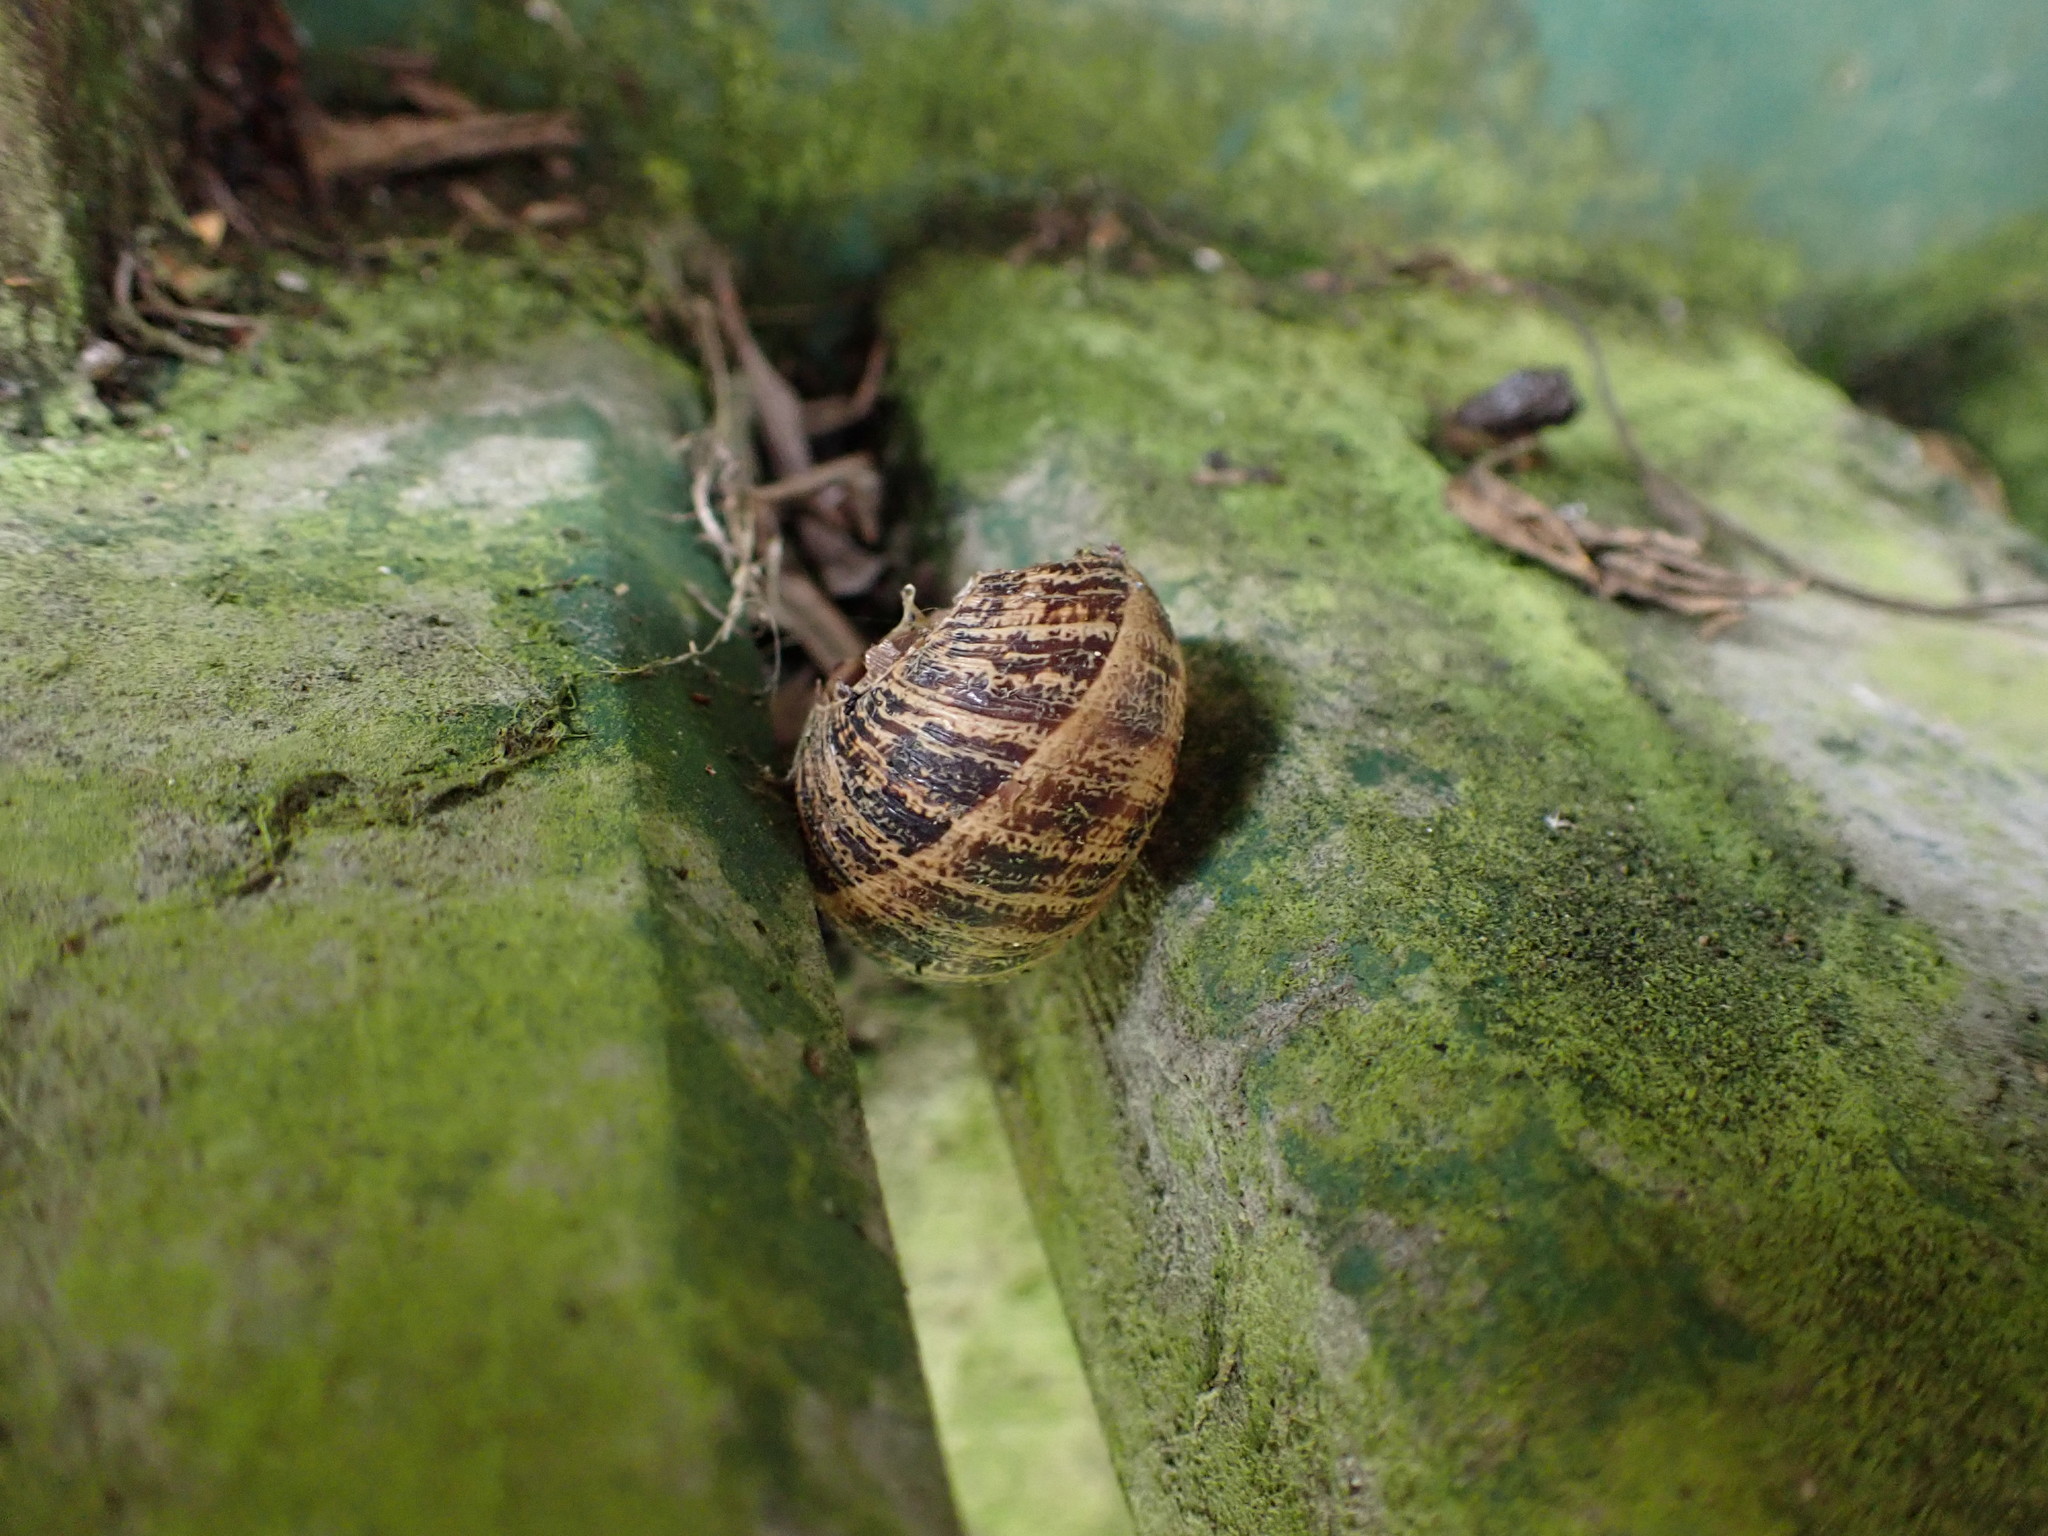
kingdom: Animalia
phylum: Mollusca
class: Gastropoda
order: Stylommatophora
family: Helicidae
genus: Cornu
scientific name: Cornu aspersum
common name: Brown garden snail
